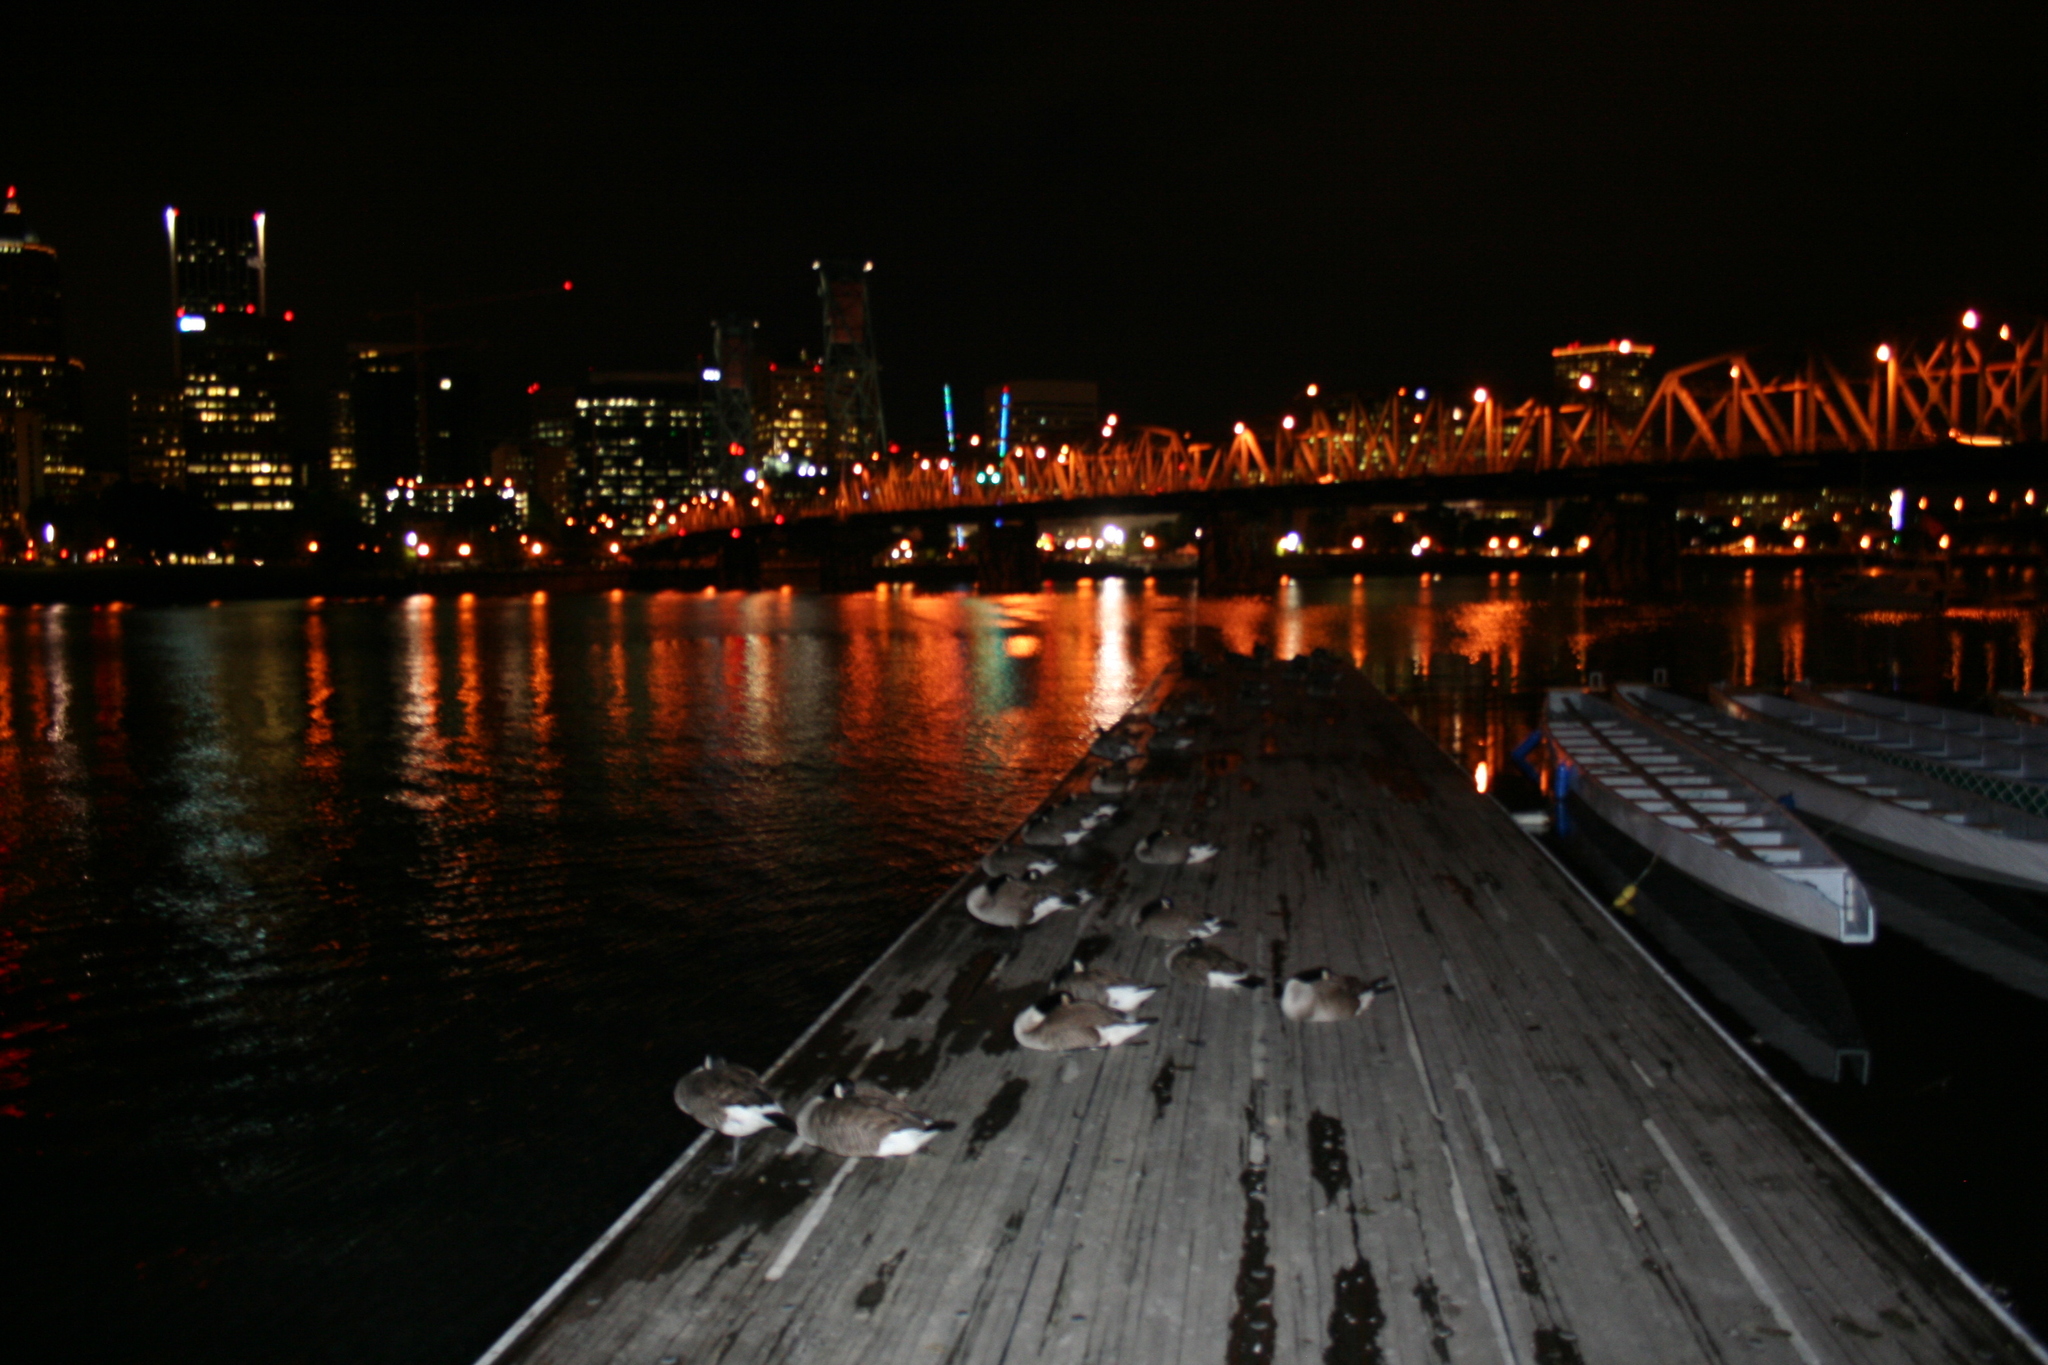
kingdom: Animalia
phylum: Chordata
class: Aves
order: Anseriformes
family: Anatidae
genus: Branta
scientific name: Branta canadensis
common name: Canada goose
